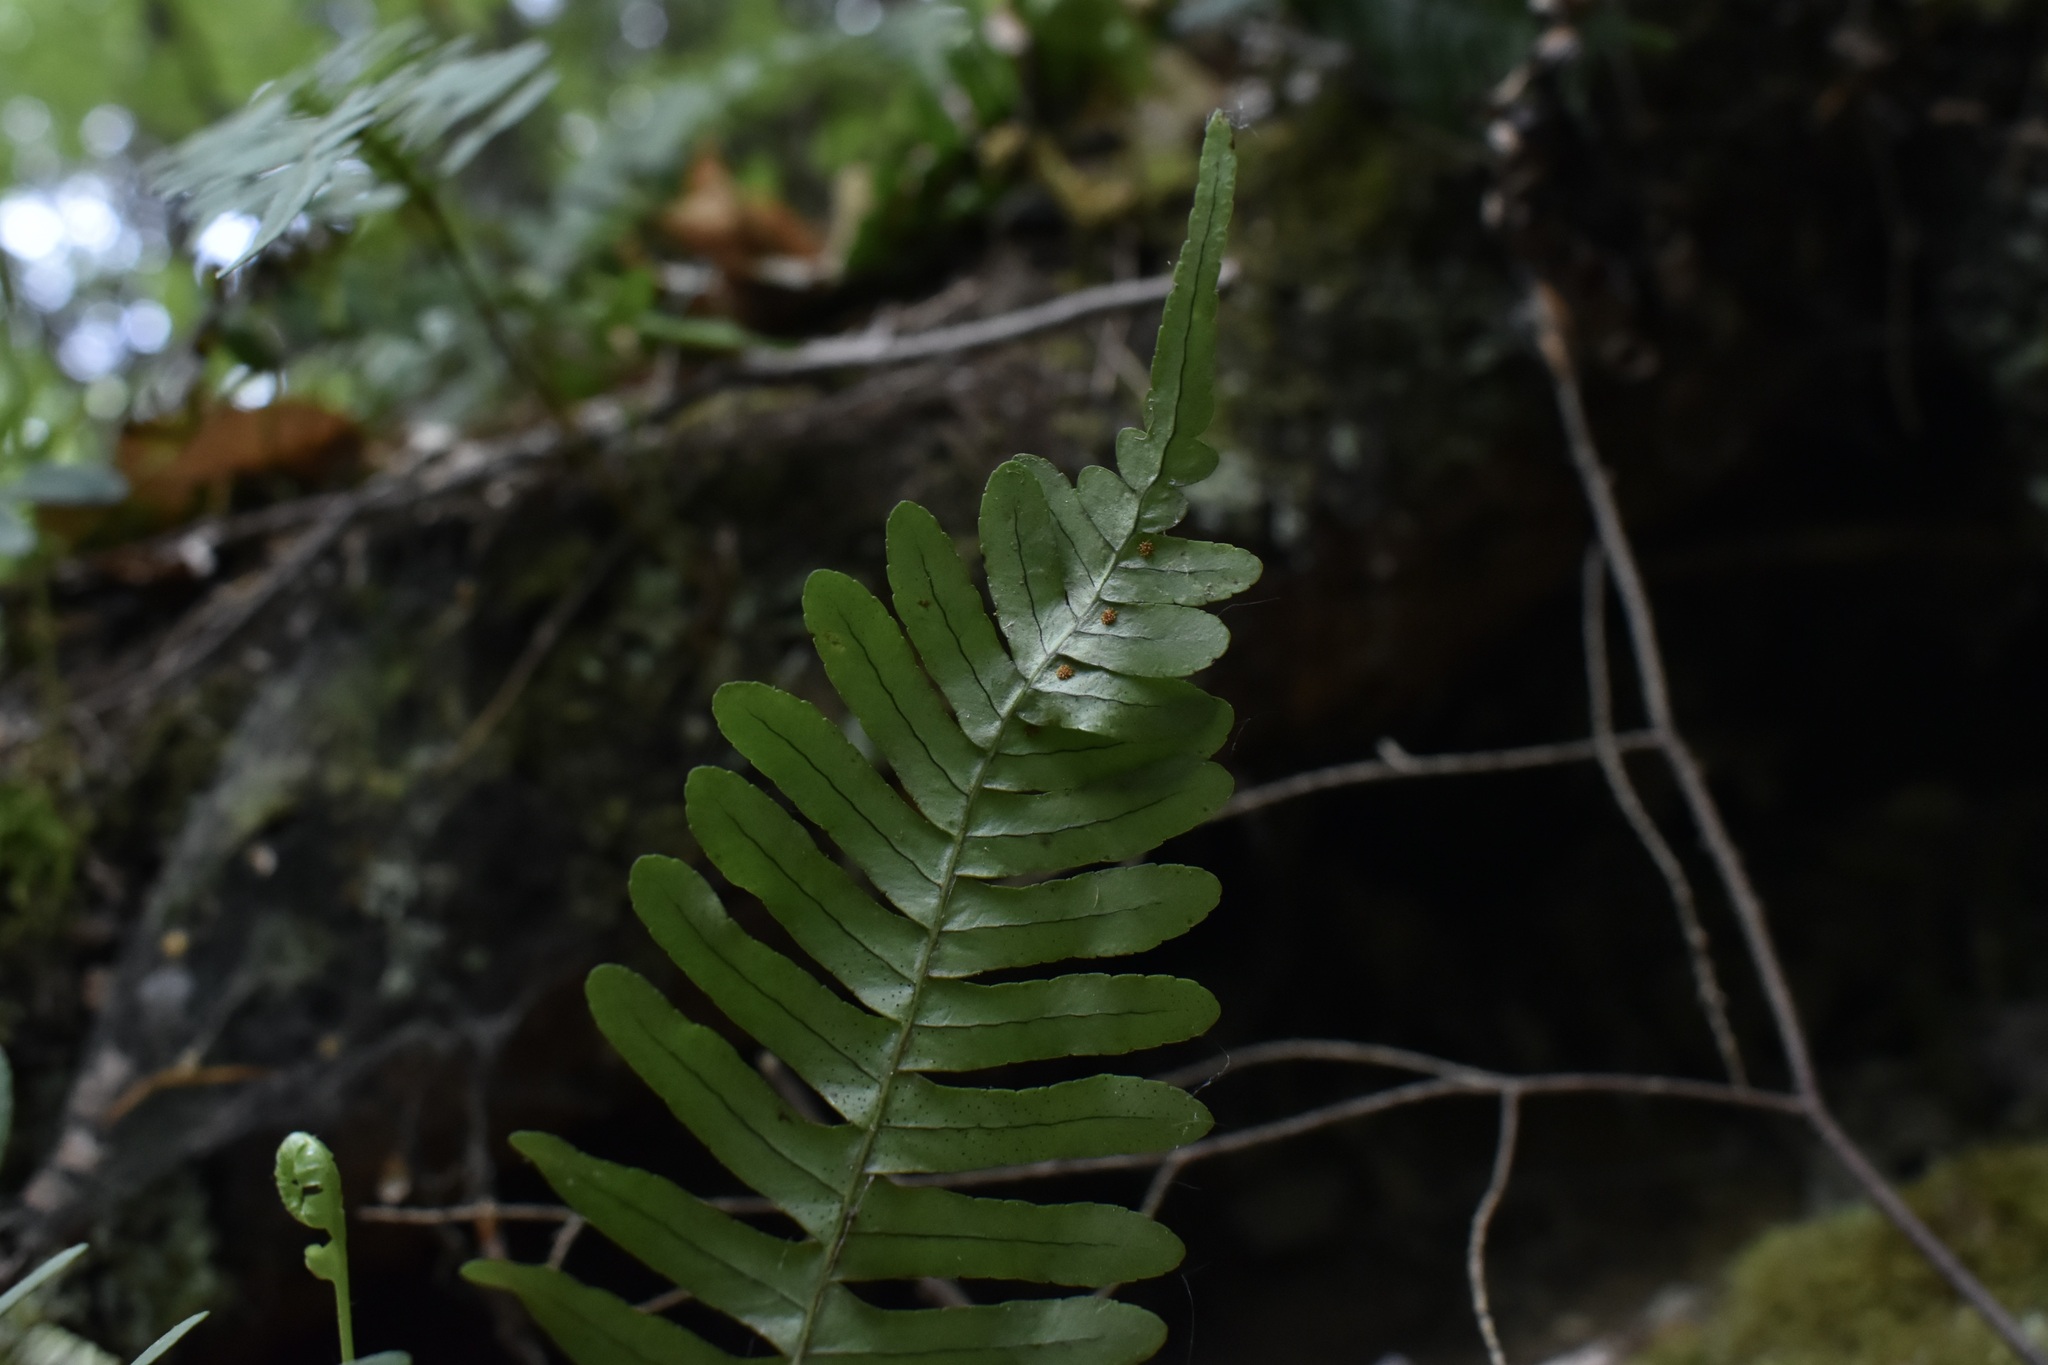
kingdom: Plantae
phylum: Tracheophyta
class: Polypodiopsida
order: Polypodiales
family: Polypodiaceae
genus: Polypodium
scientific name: Polypodium virginianum
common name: American wall fern
